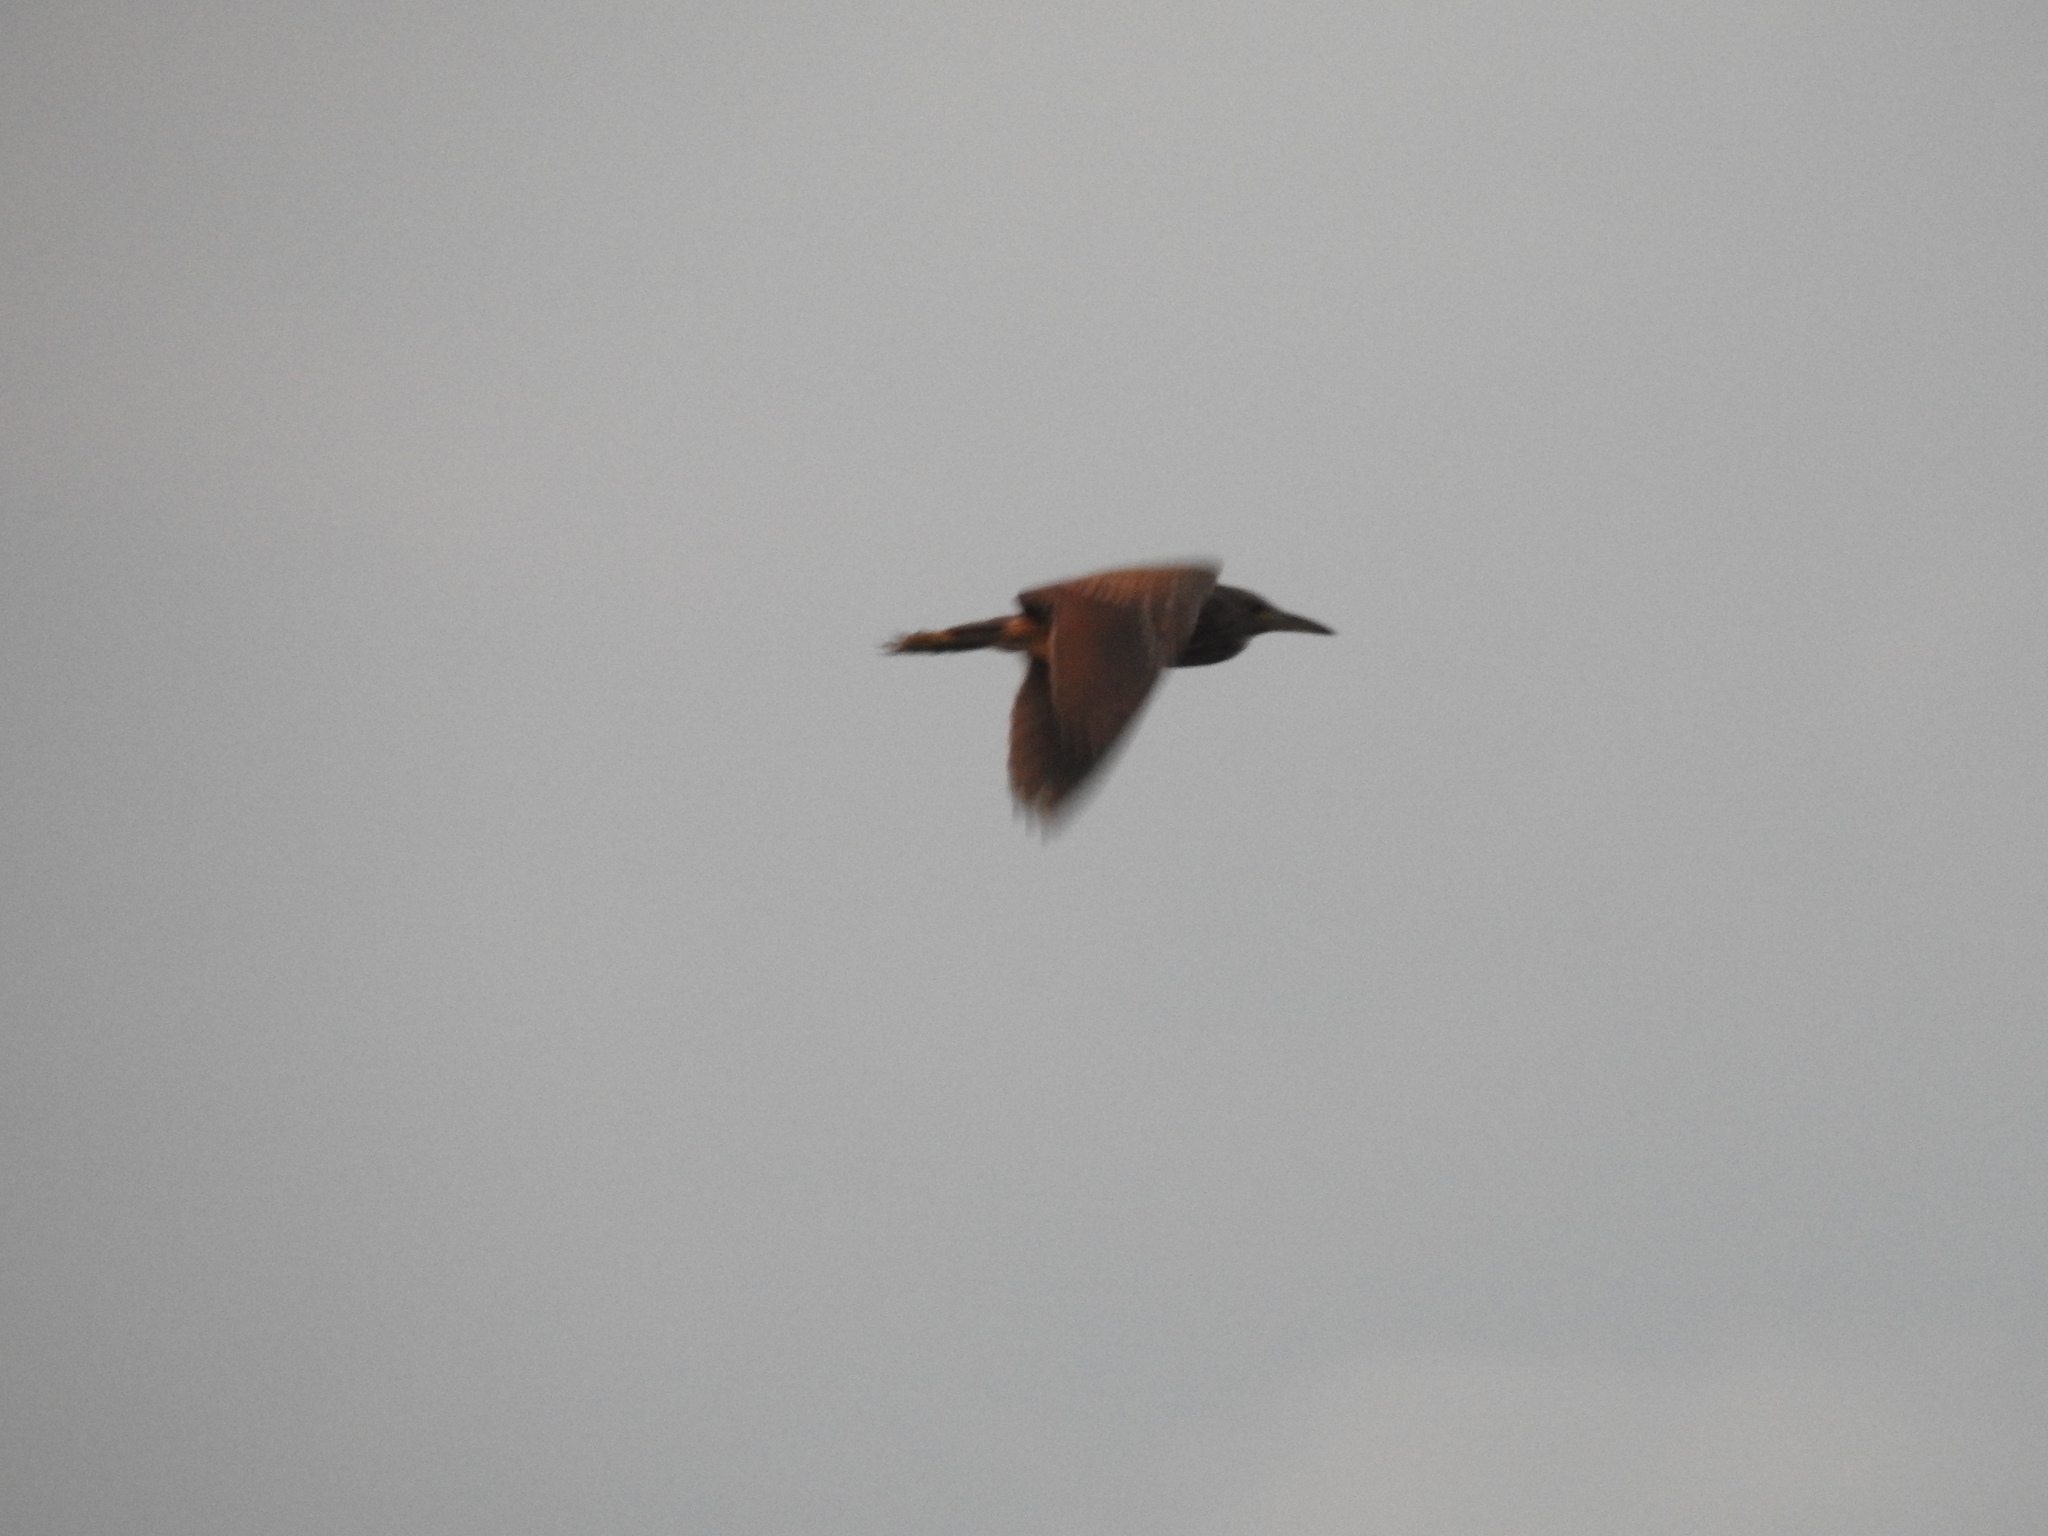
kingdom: Animalia
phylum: Chordata
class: Aves
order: Pelecaniformes
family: Ardeidae
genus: Nycticorax
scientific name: Nycticorax nycticorax
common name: Black-crowned night heron
